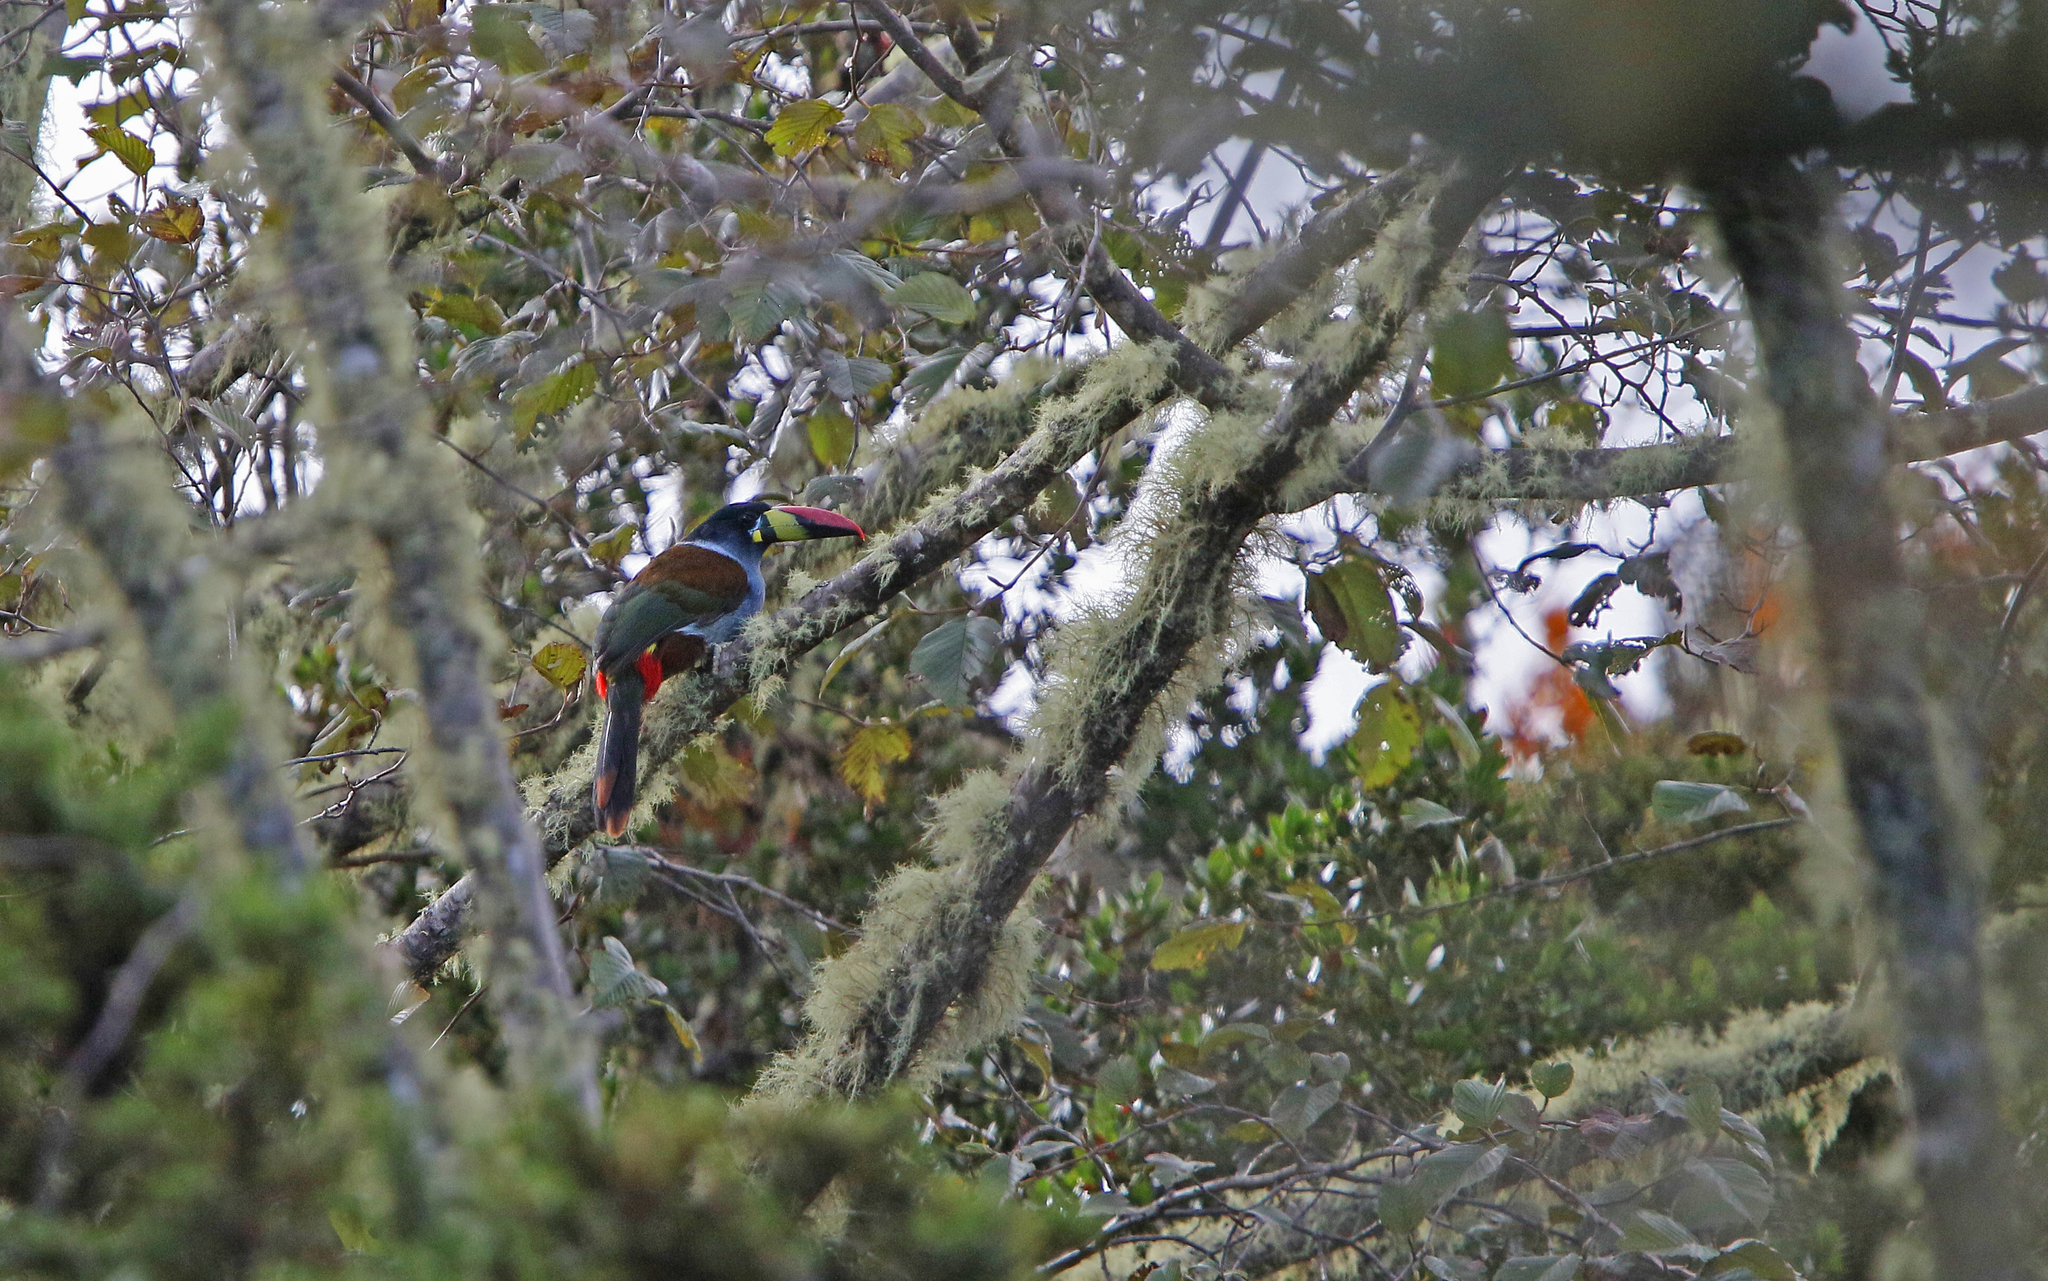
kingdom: Animalia
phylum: Chordata
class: Aves
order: Piciformes
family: Ramphastidae
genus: Andigena
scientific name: Andigena hypoglauca
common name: Grey-breasted mountain toucan
